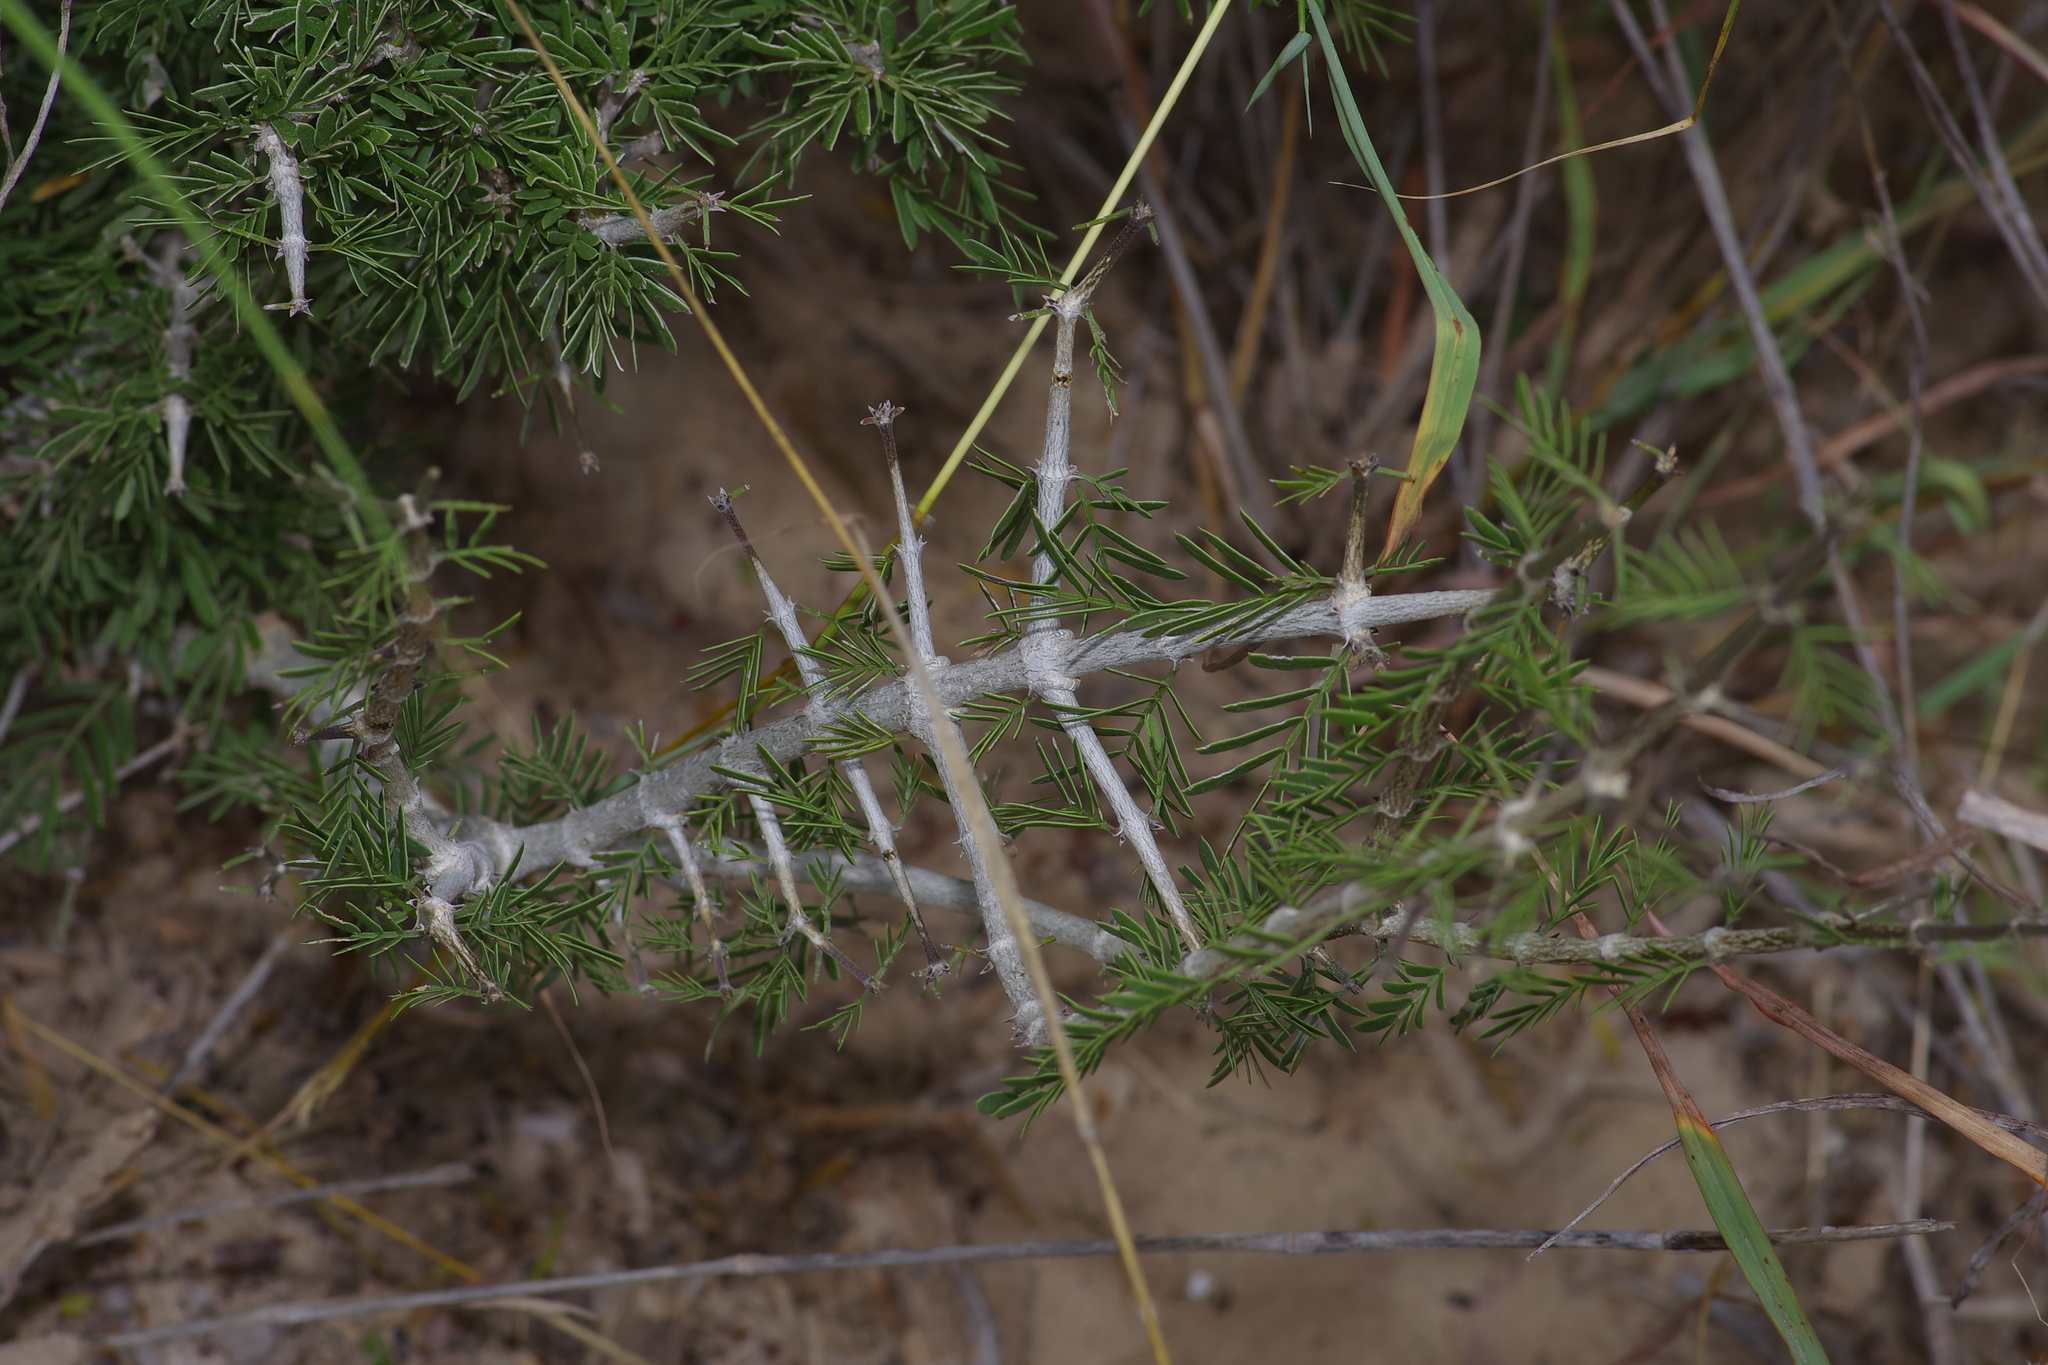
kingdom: Plantae
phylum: Tracheophyta
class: Magnoliopsida
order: Zygophyllales
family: Zygophyllaceae
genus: Porlieria
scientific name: Porlieria angustifolia
